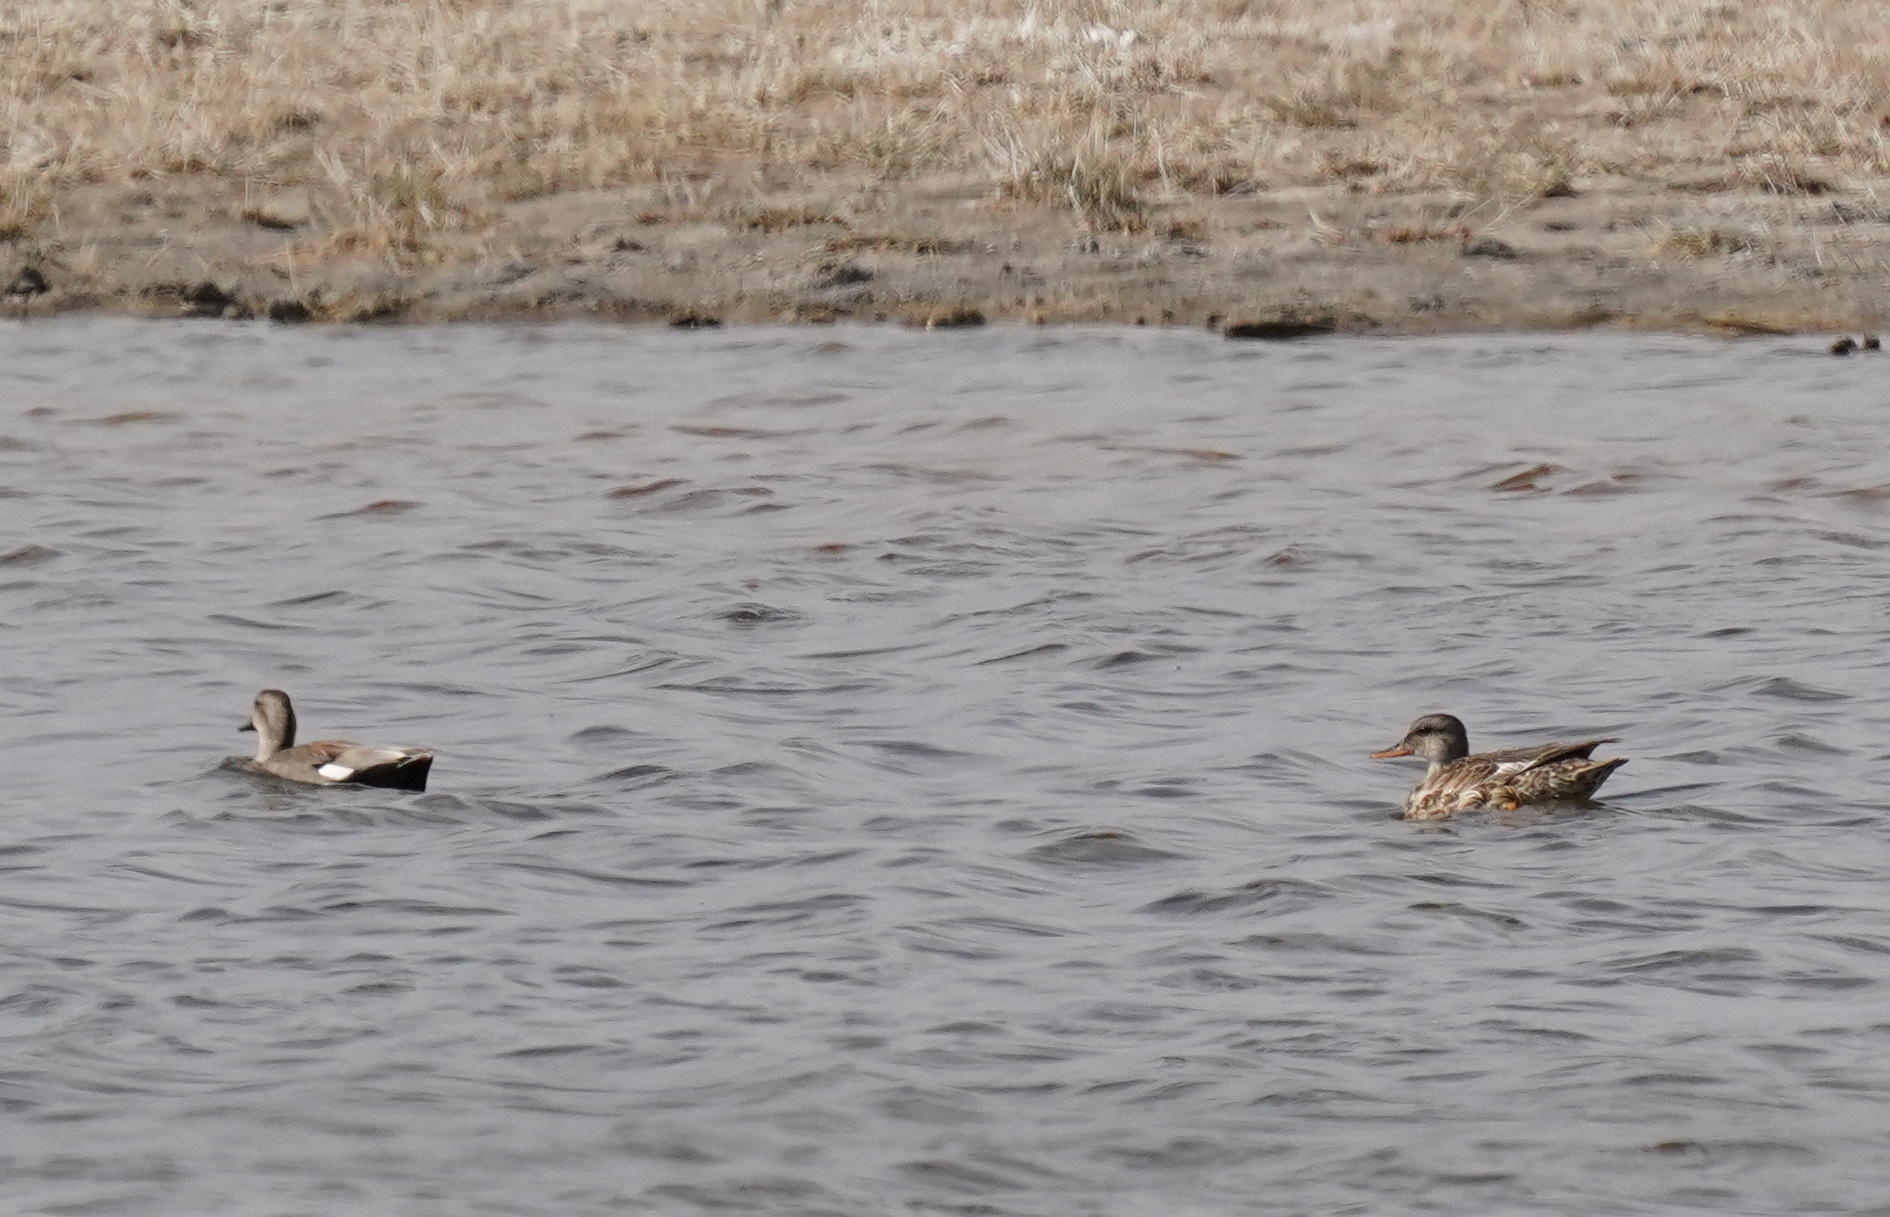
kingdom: Animalia
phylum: Chordata
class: Aves
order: Anseriformes
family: Anatidae
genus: Mareca
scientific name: Mareca strepera
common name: Gadwall
